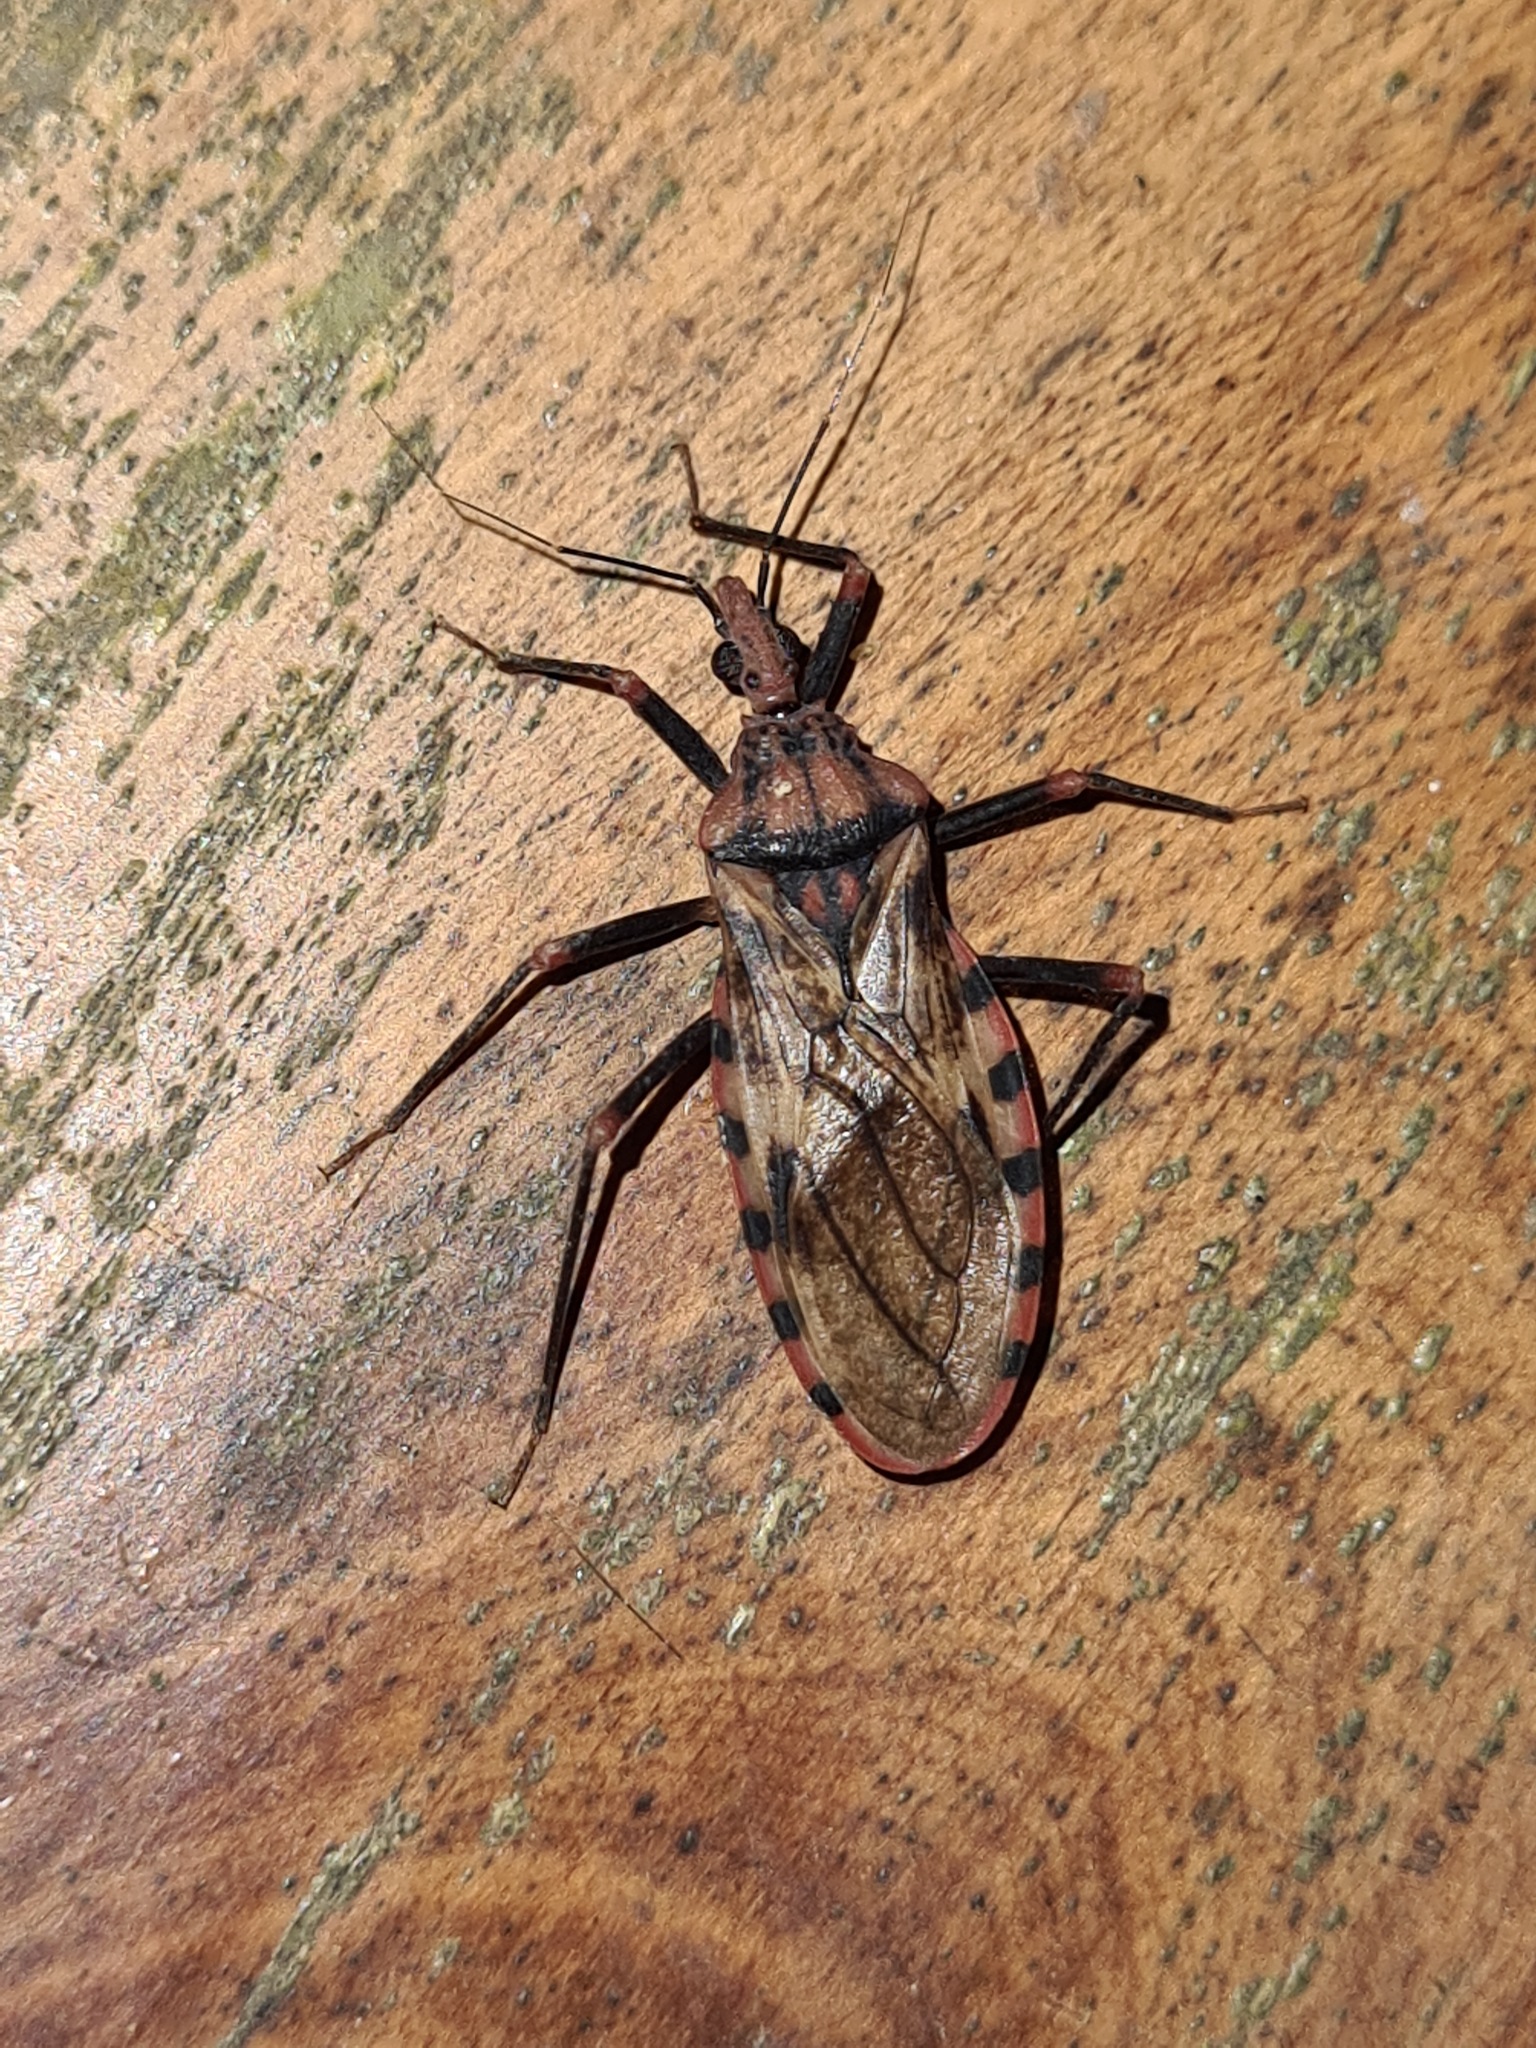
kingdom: Animalia
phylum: Arthropoda
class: Insecta
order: Hemiptera
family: Reduviidae
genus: Panstrongylus
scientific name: Panstrongylus geniculatus
